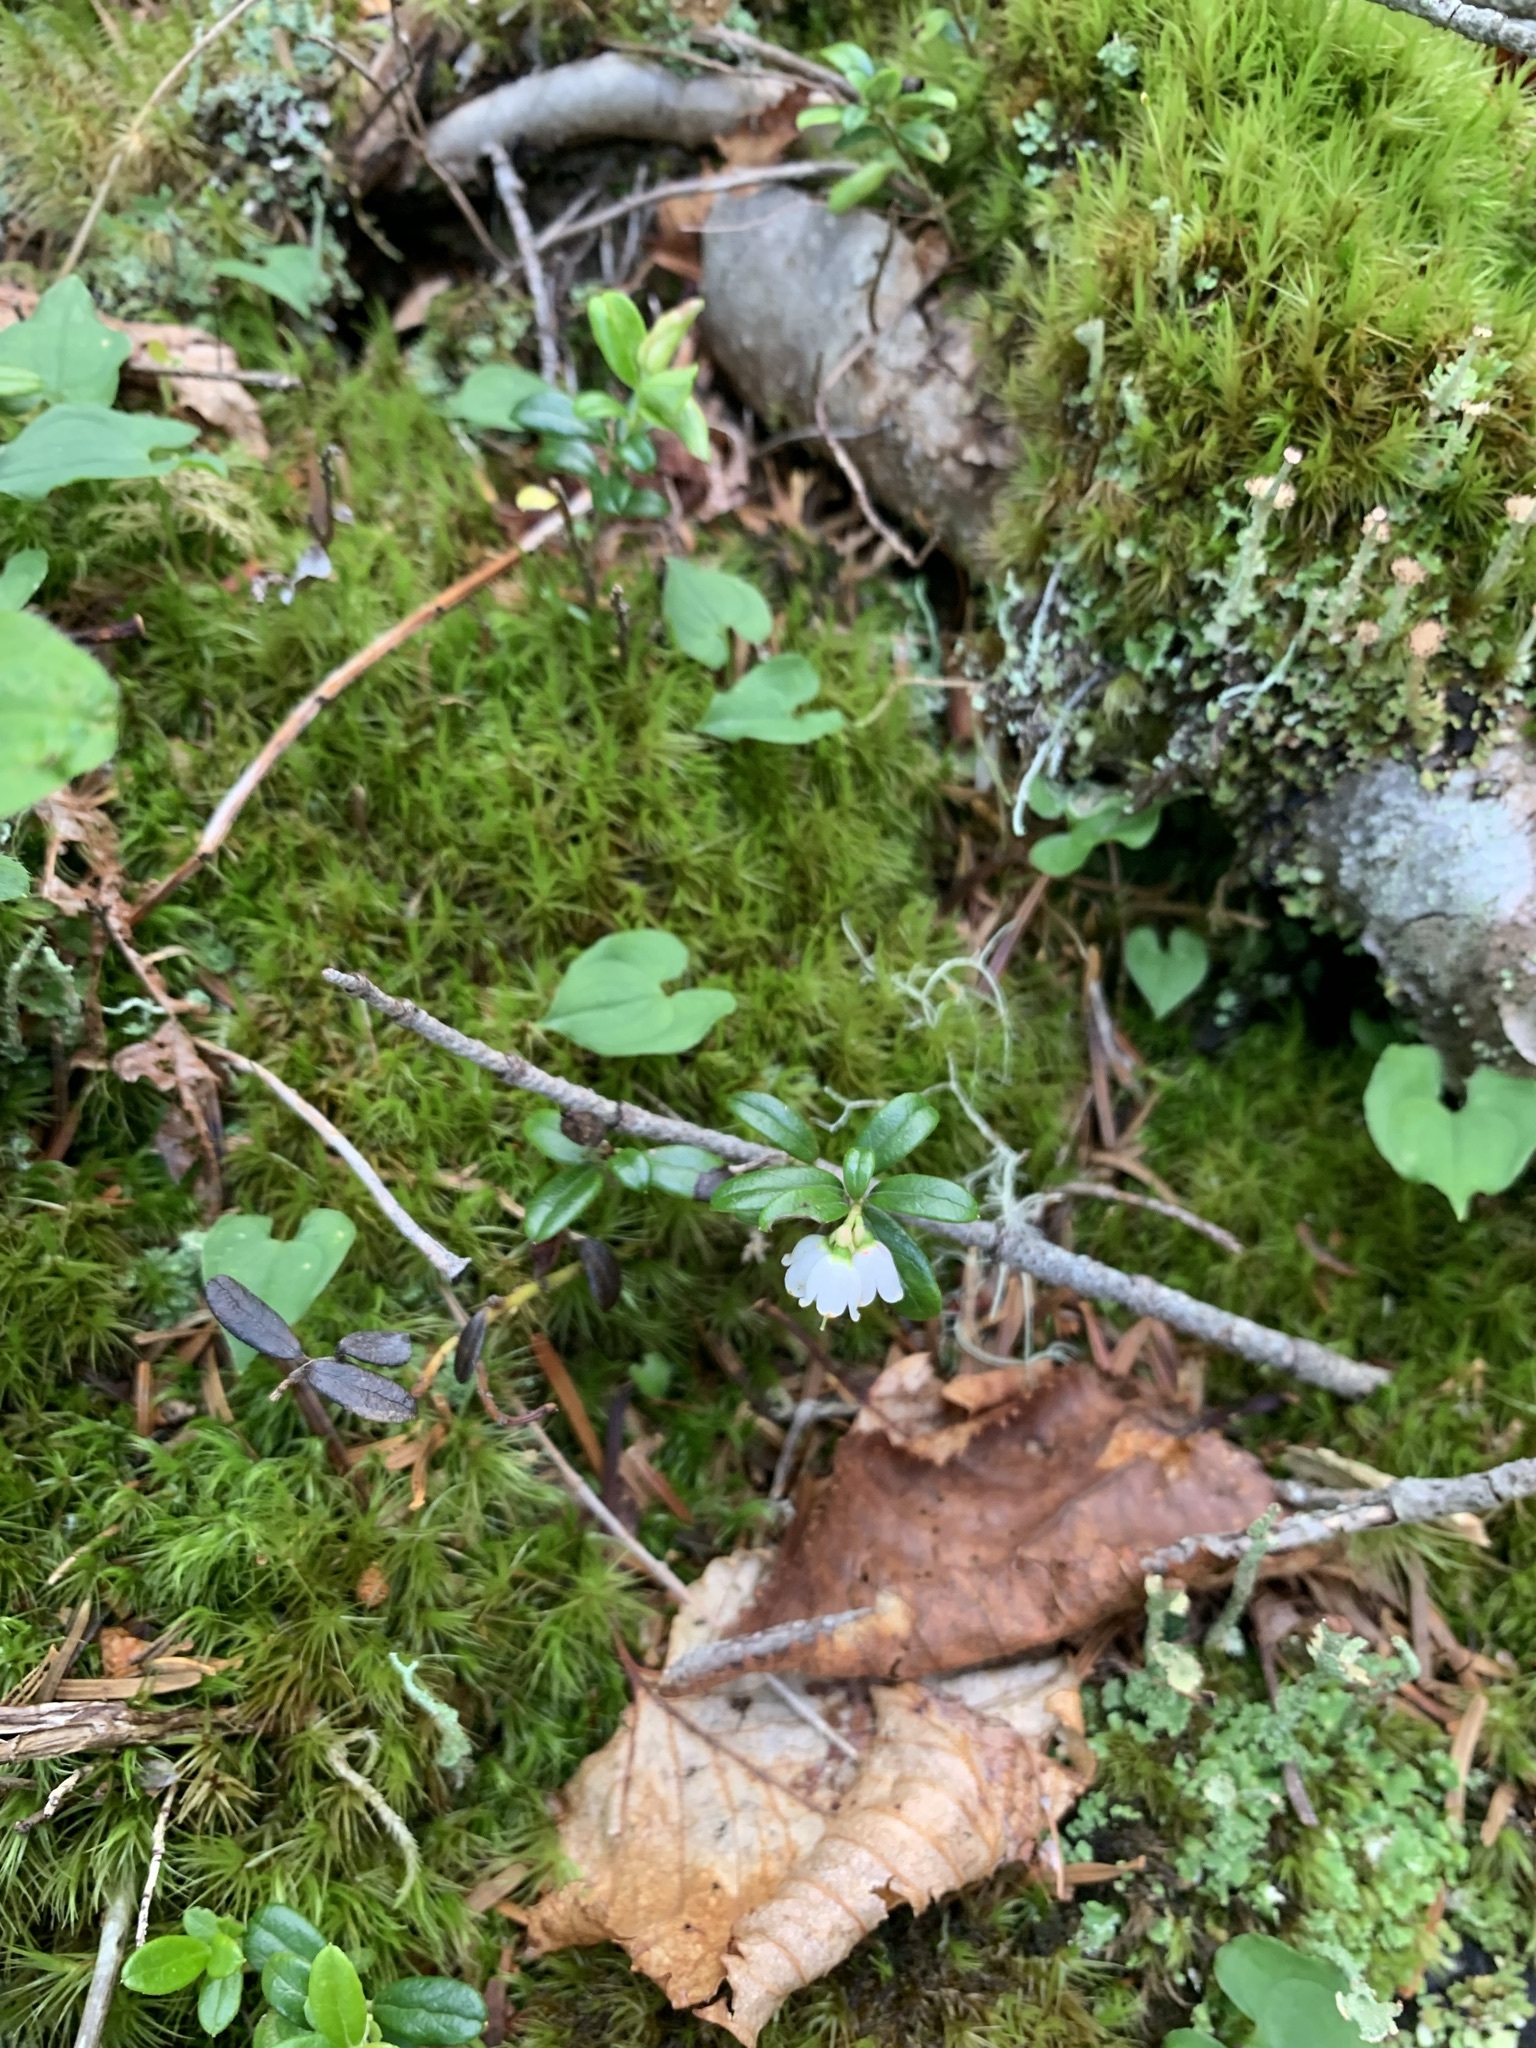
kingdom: Plantae
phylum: Tracheophyta
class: Magnoliopsida
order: Ericales
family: Ericaceae
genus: Vaccinium
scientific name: Vaccinium vitis-idaea
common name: Cowberry
